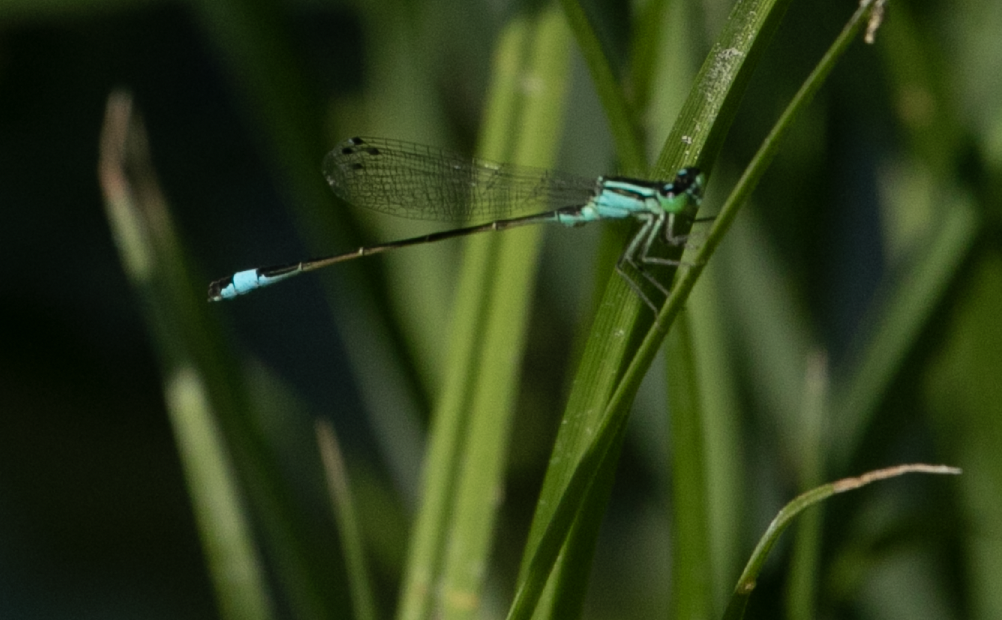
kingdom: Animalia
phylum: Arthropoda
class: Insecta
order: Odonata
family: Coenagrionidae
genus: Ischnura
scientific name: Ischnura elegans
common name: Blue-tailed damselfly
